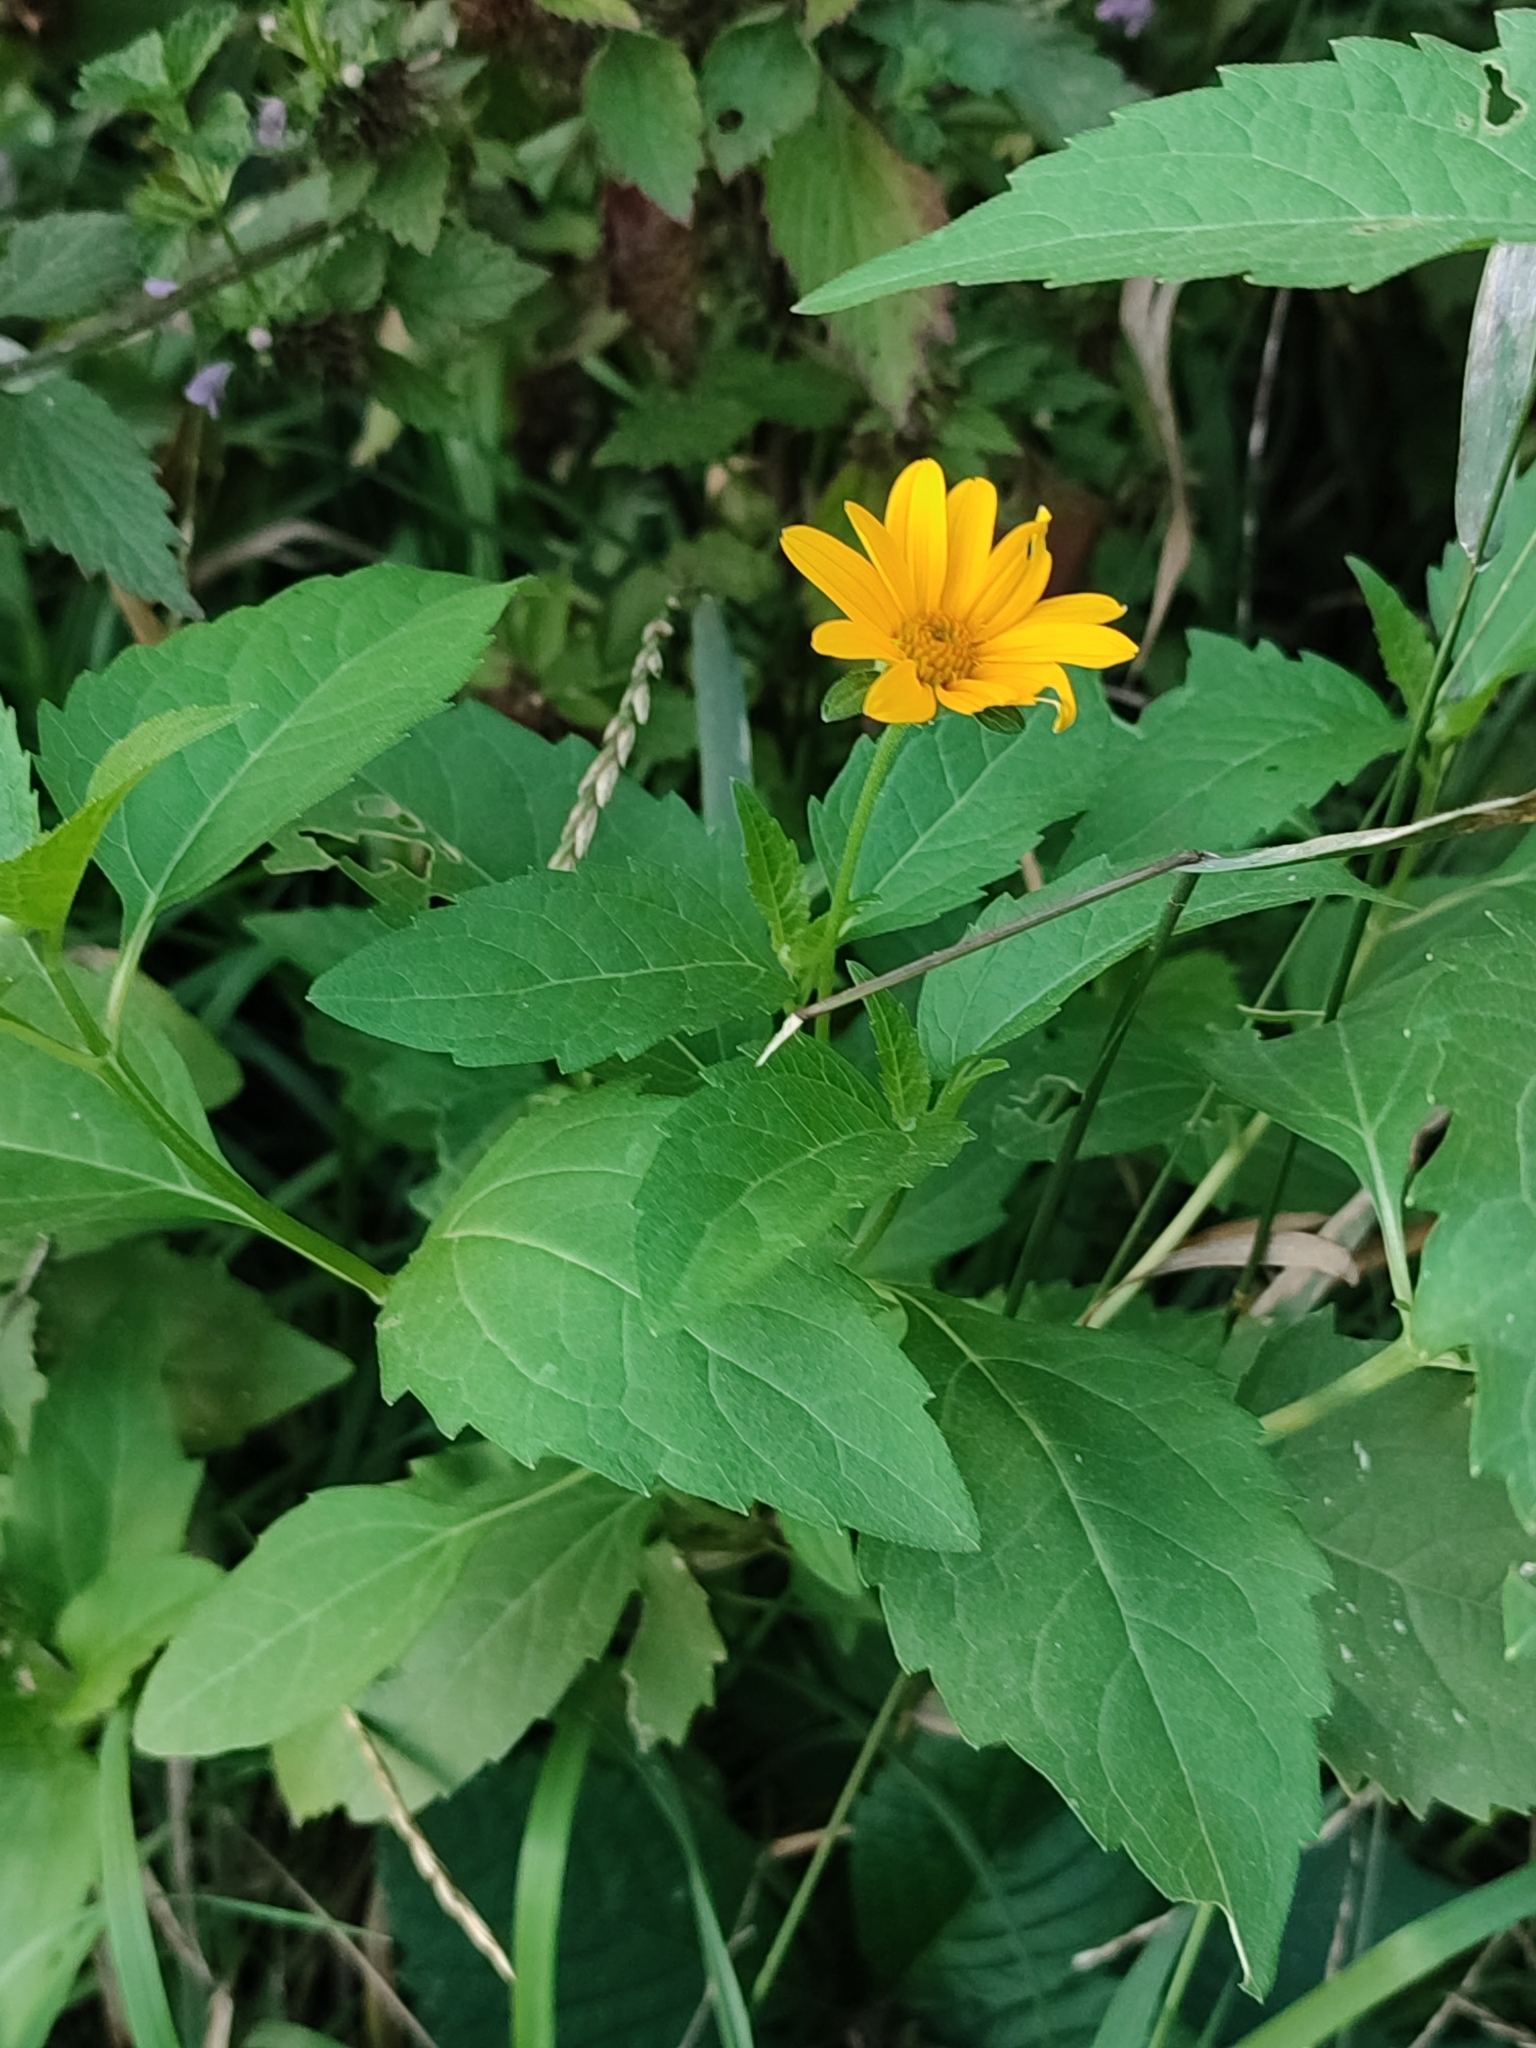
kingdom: Plantae
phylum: Tracheophyta
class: Magnoliopsida
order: Asterales
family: Asteraceae
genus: Heliopsis
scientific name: Heliopsis helianthoides
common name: False sunflower
